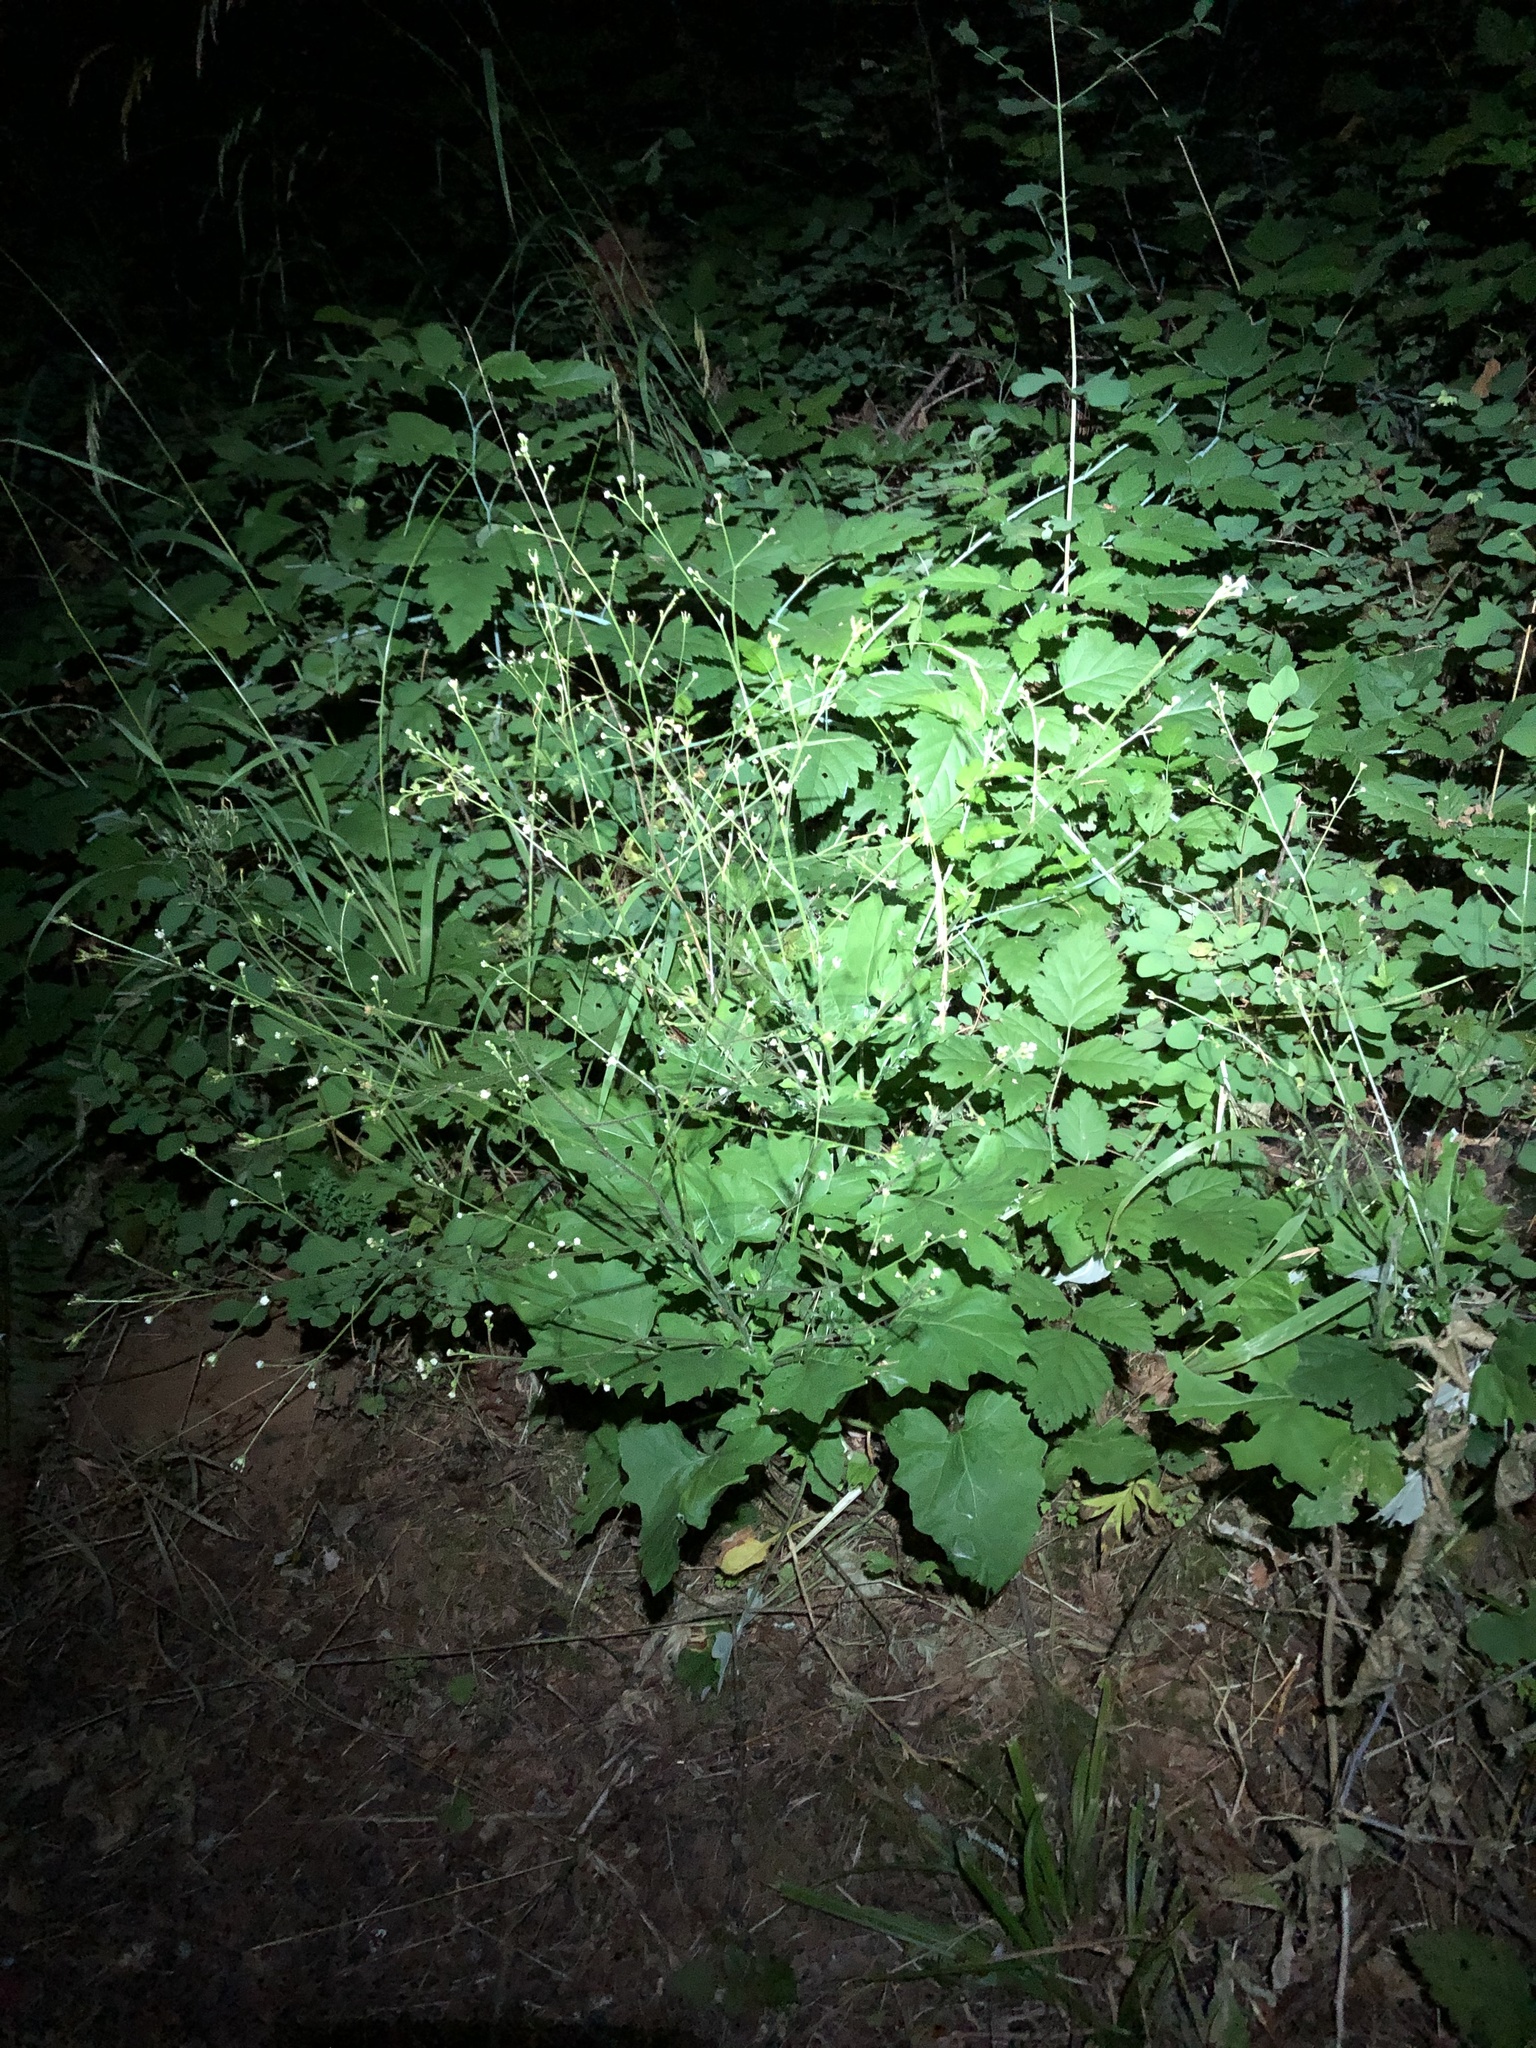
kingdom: Plantae
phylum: Tracheophyta
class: Magnoliopsida
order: Asterales
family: Asteraceae
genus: Adenocaulon
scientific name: Adenocaulon bicolor
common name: Trailplant
